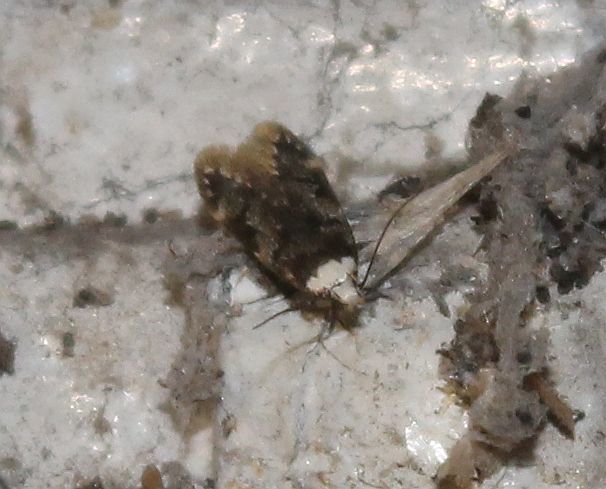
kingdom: Animalia
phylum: Arthropoda
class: Insecta
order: Lepidoptera
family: Oecophoridae
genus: Endrosis
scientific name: Endrosis sarcitrella
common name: White-shouldered house moth
